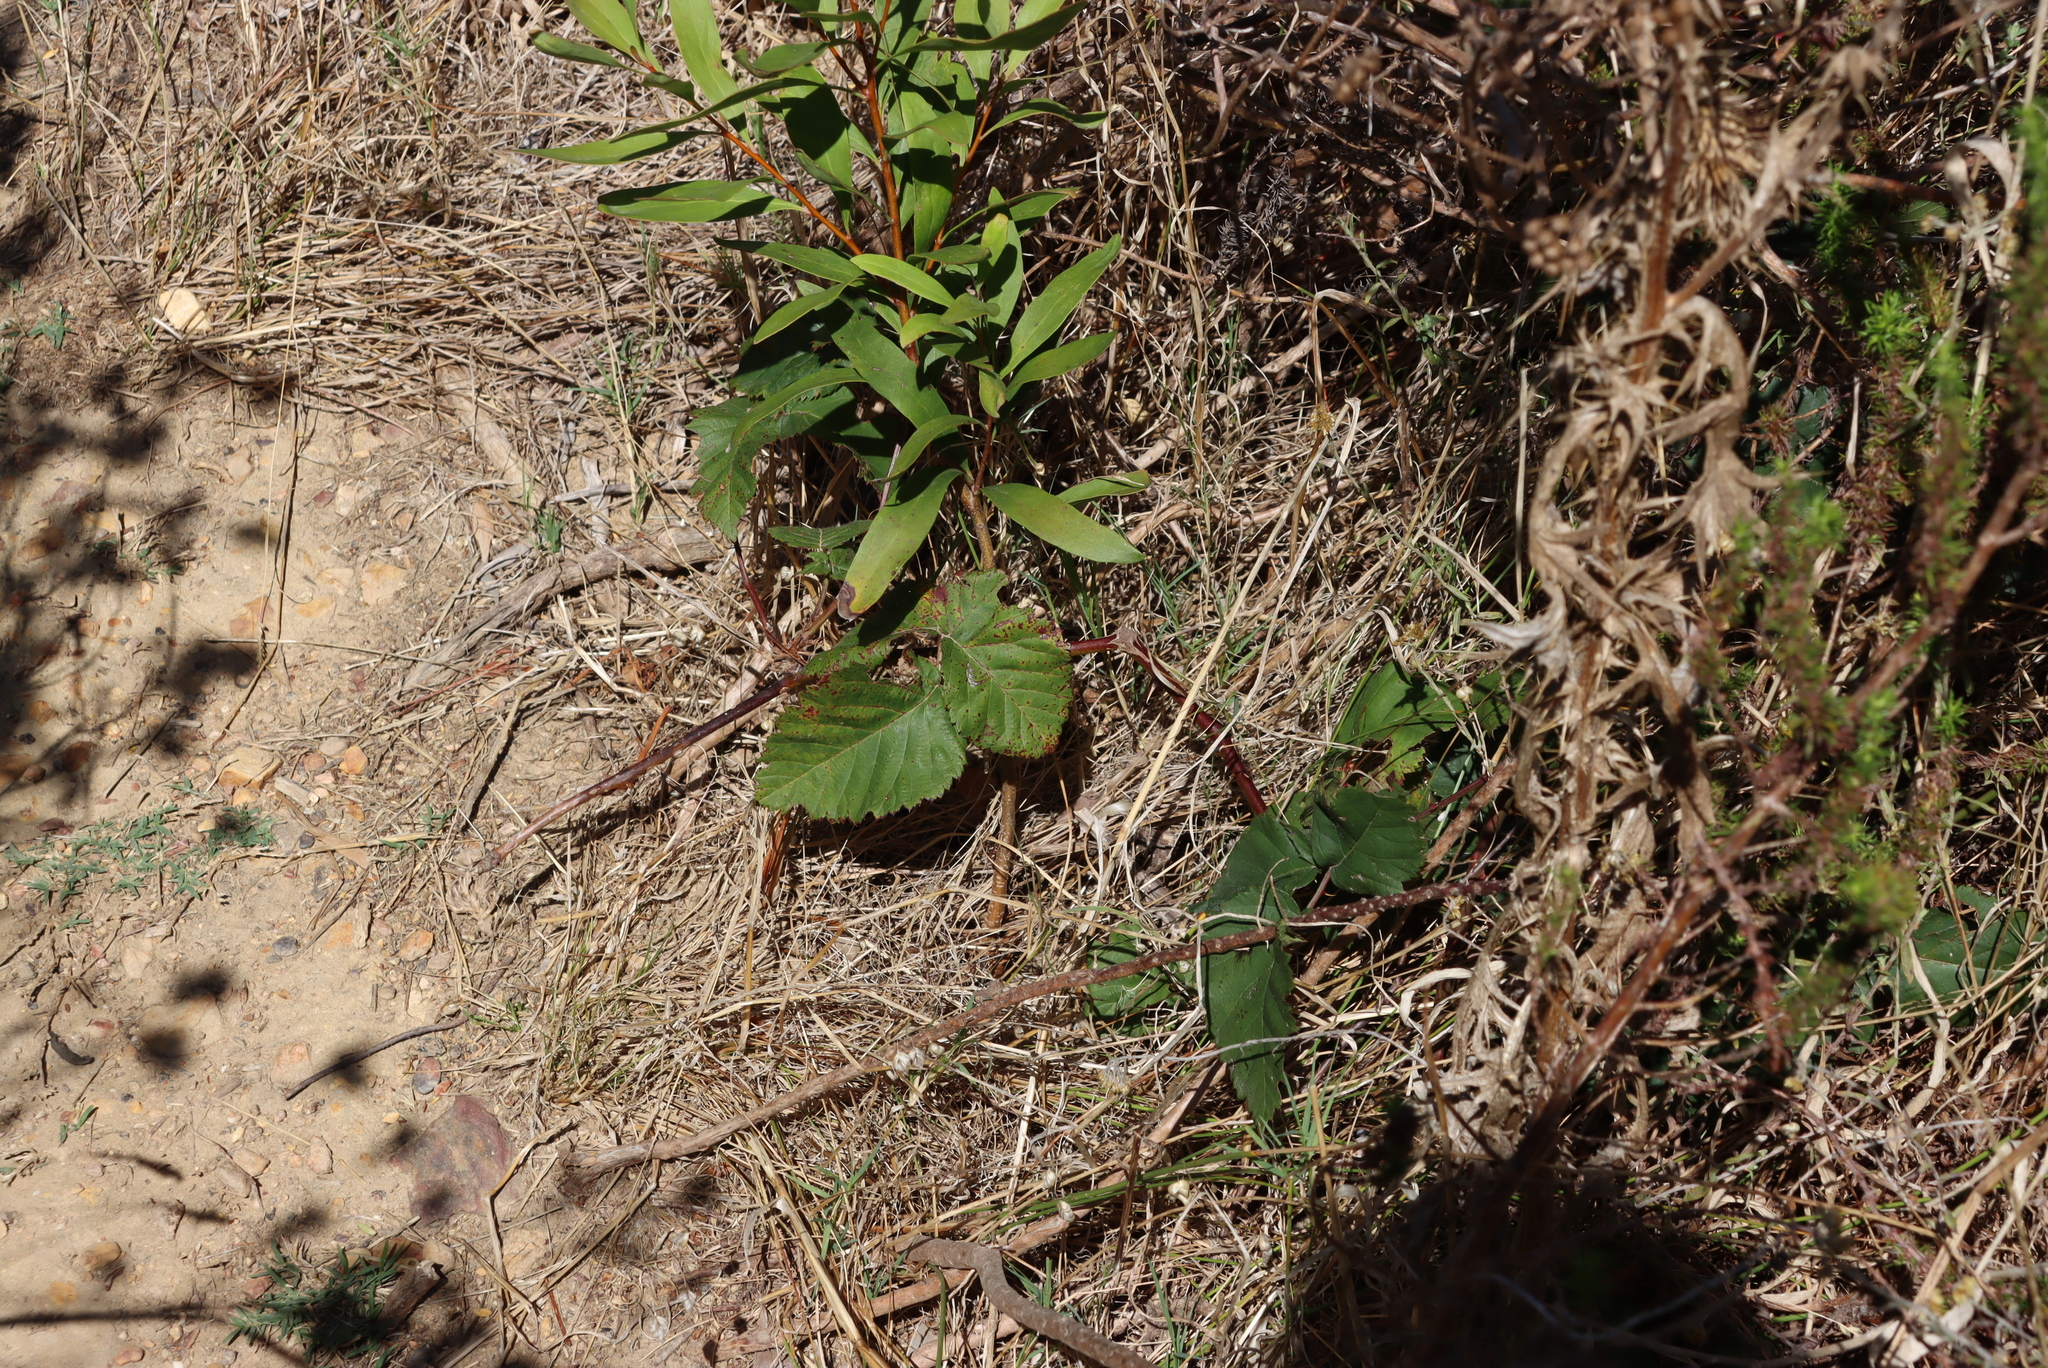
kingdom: Plantae
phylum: Tracheophyta
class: Magnoliopsida
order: Proteales
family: Proteaceae
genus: Hakea
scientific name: Hakea salicifolia
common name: Willow hakea
